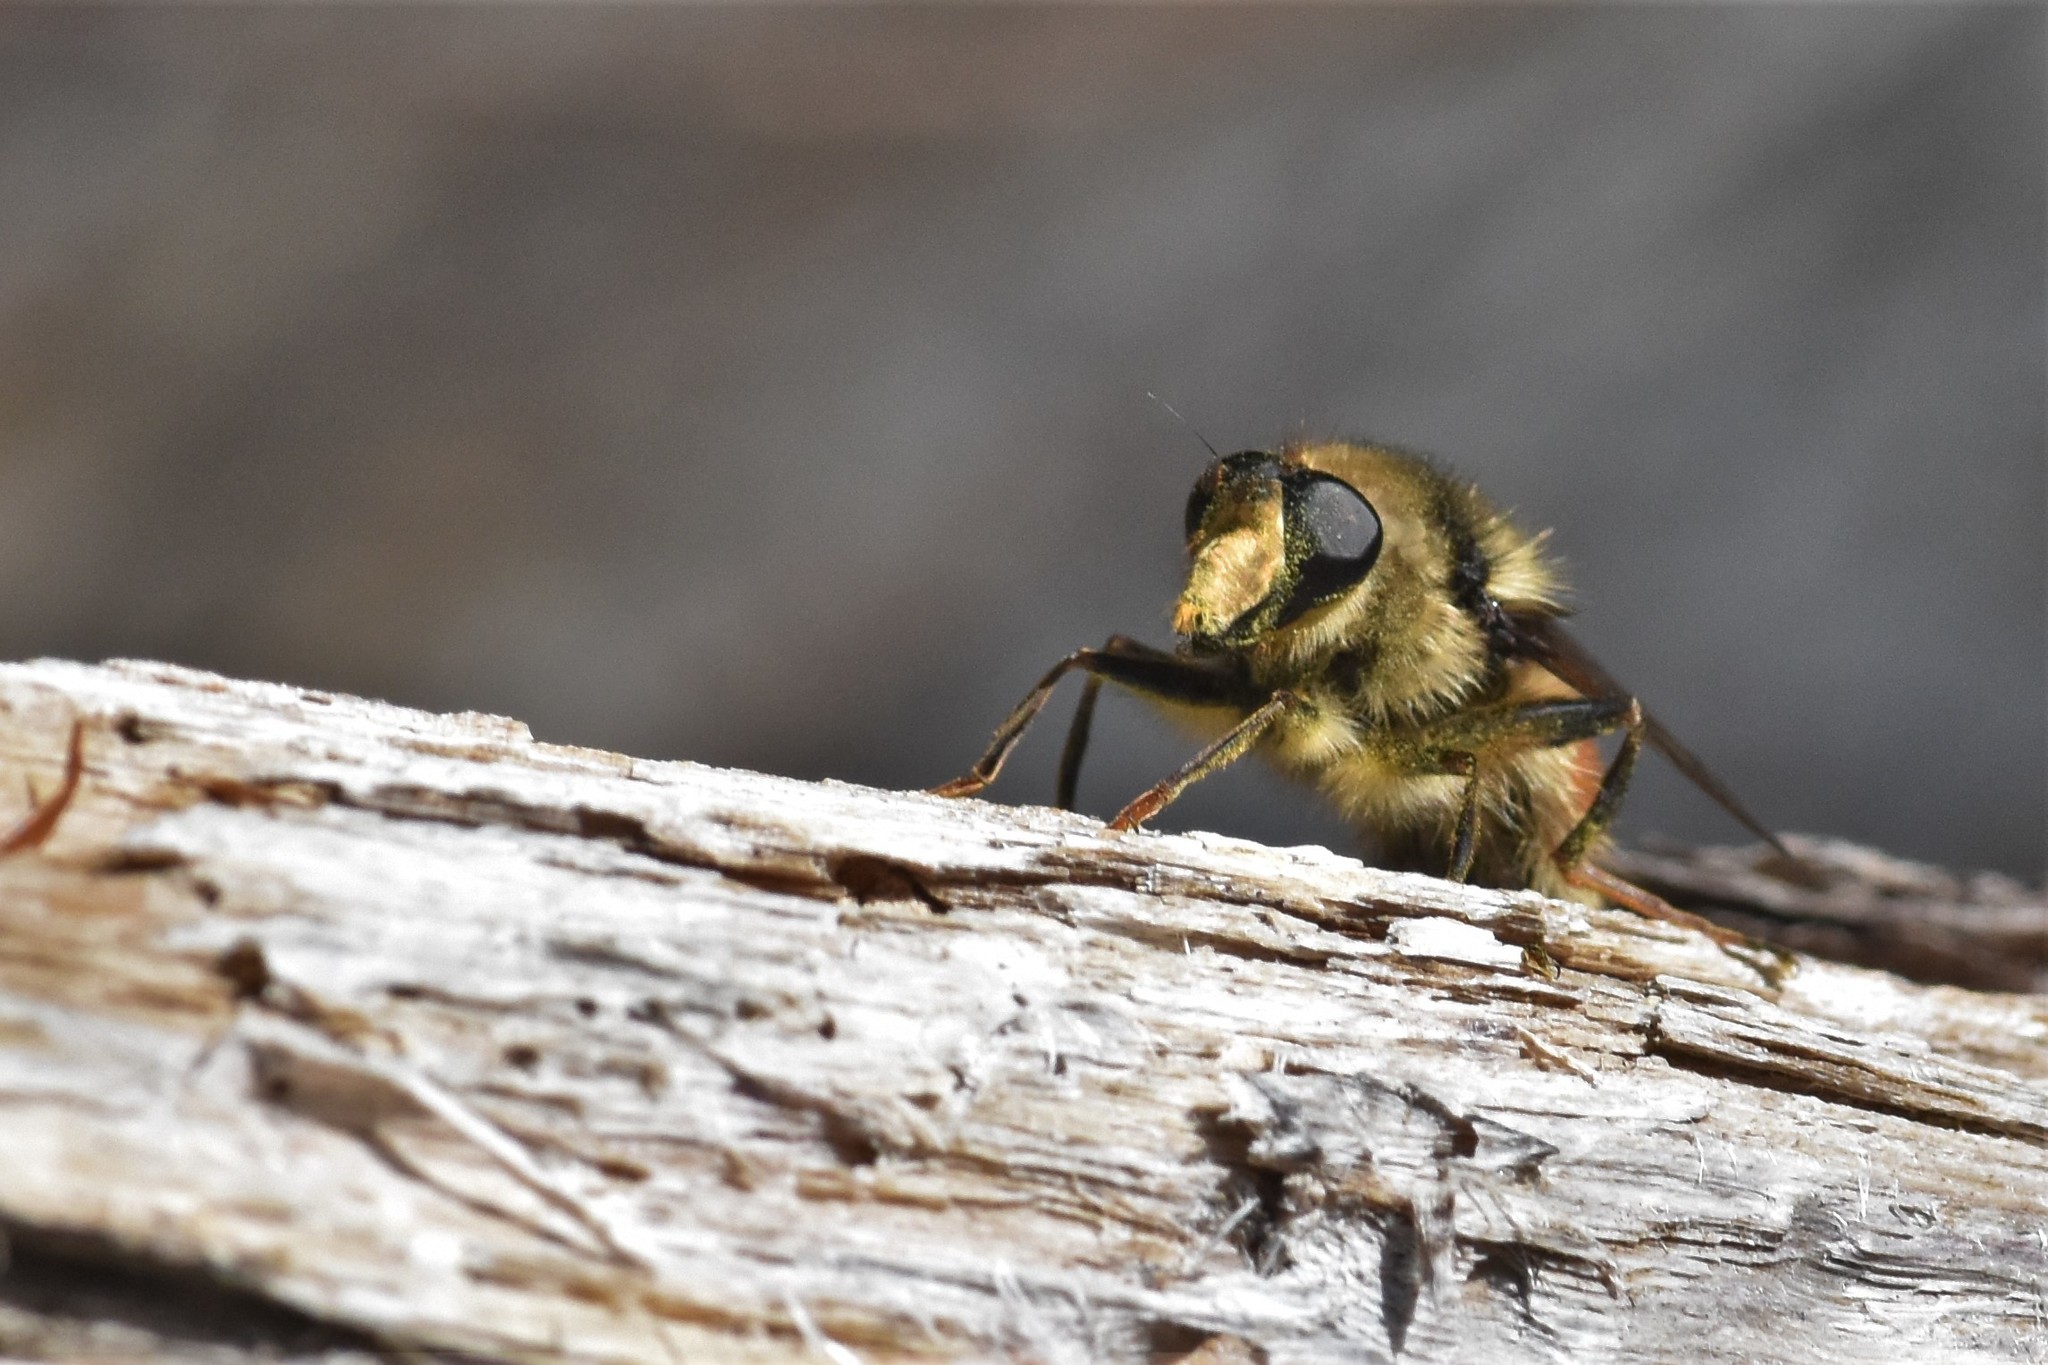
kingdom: Animalia
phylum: Arthropoda
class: Insecta
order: Diptera
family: Syrphidae
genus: Criorhina
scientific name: Criorhina bubulcus
